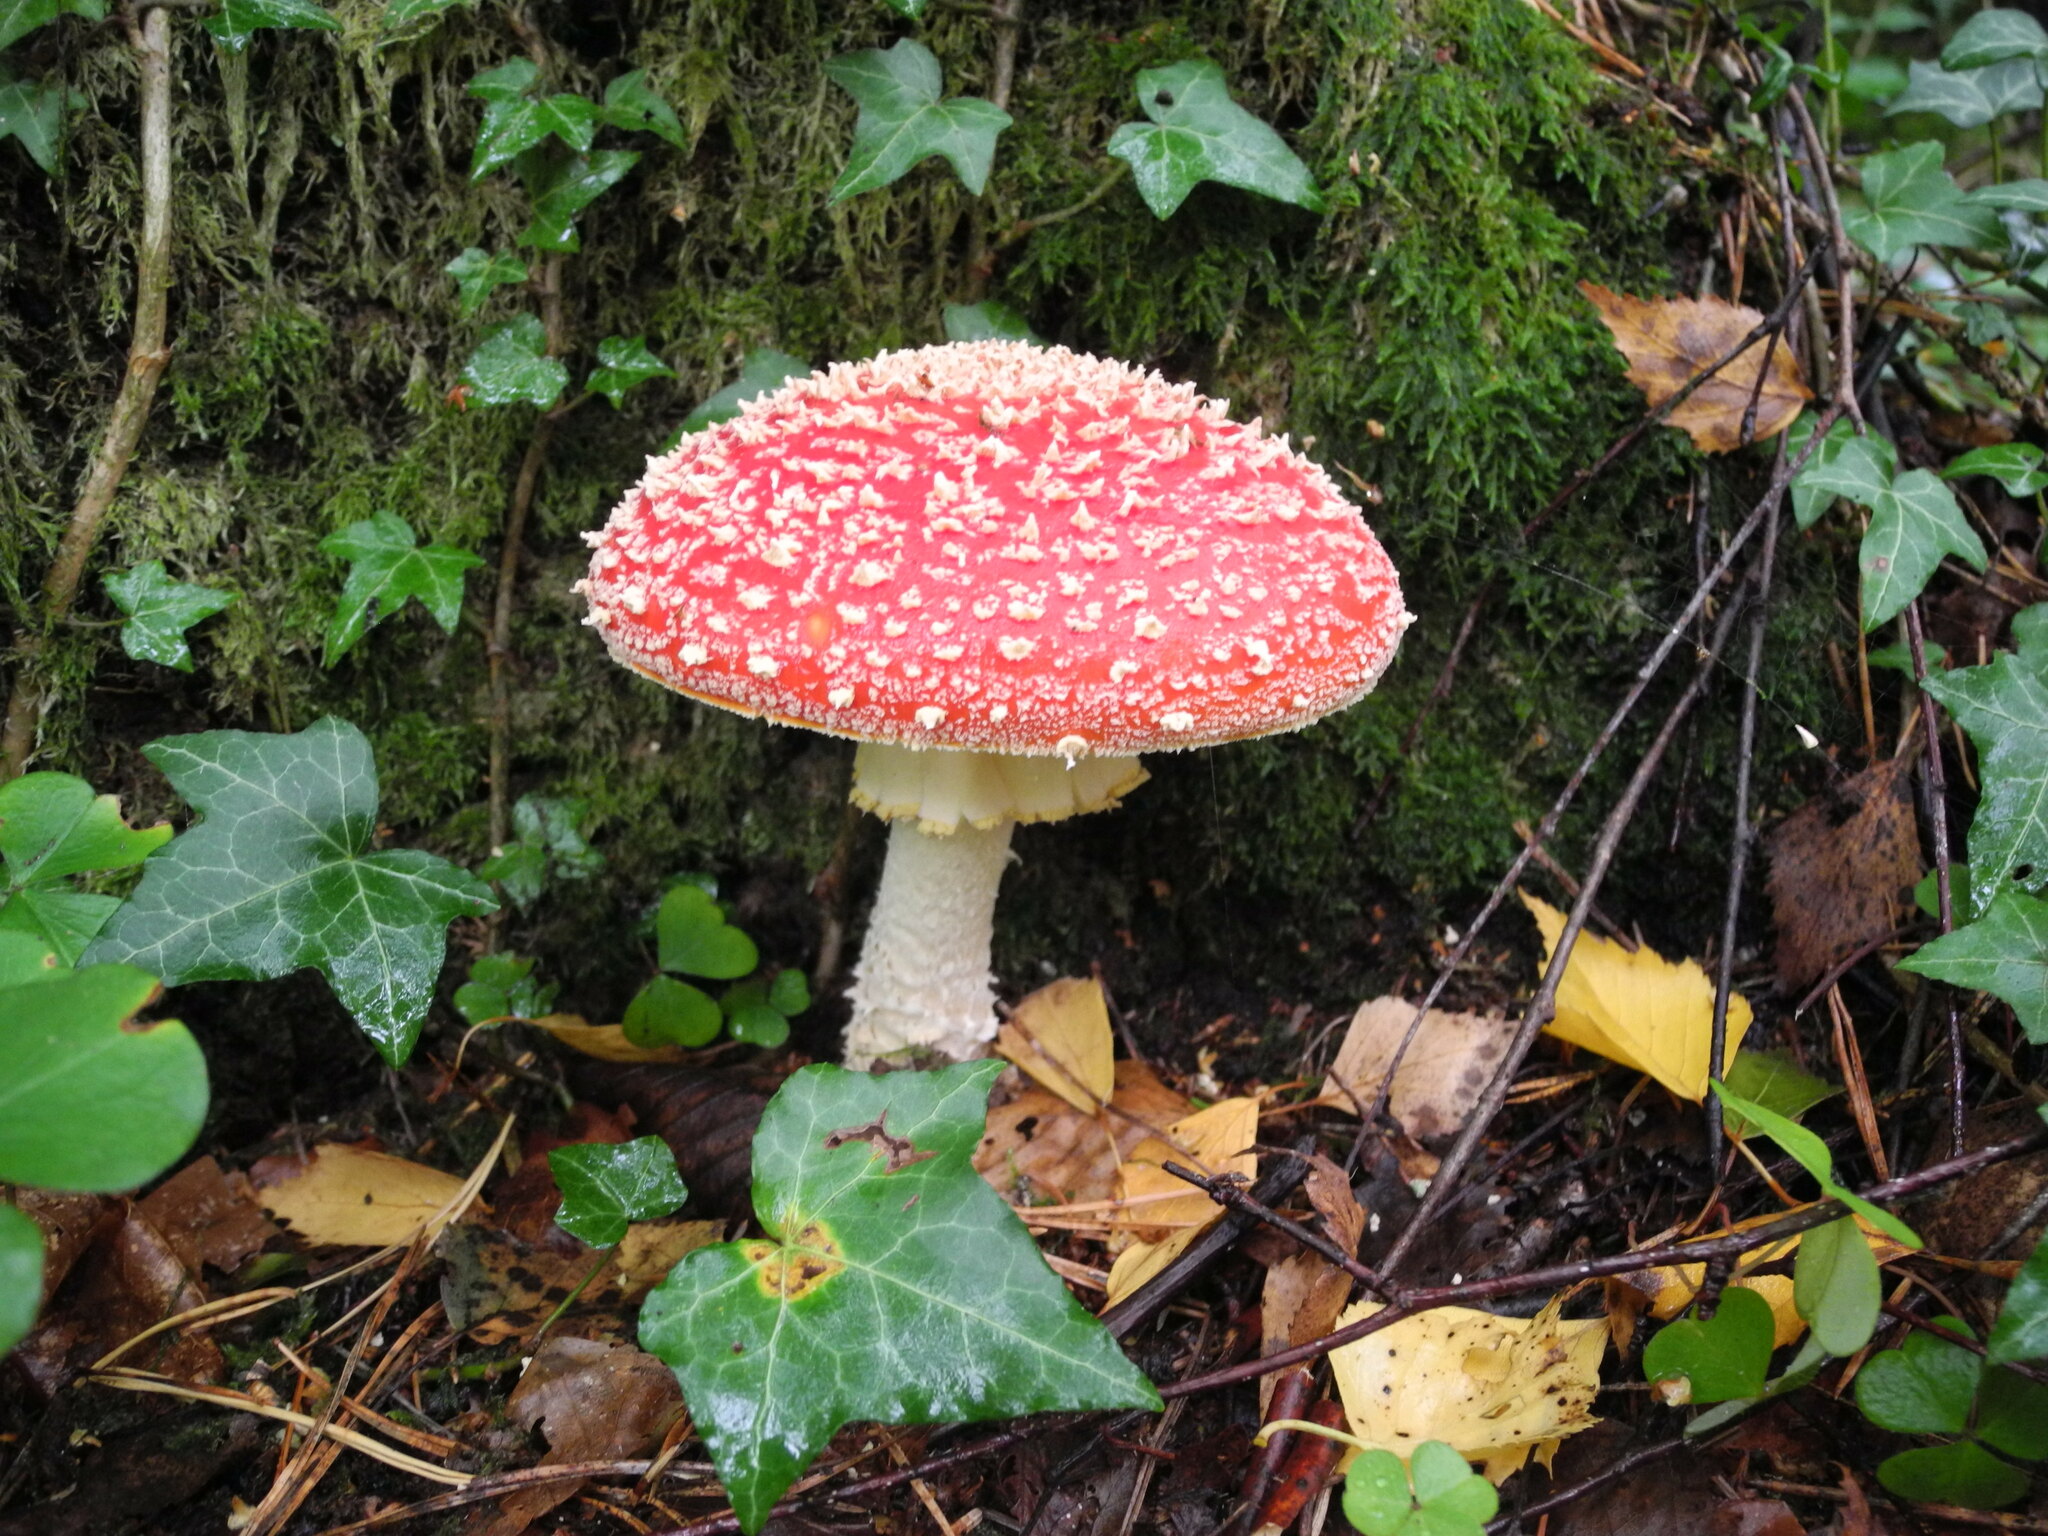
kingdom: Fungi
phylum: Basidiomycota
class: Agaricomycetes
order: Agaricales
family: Amanitaceae
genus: Amanita
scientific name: Amanita muscaria
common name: Fly agaric
